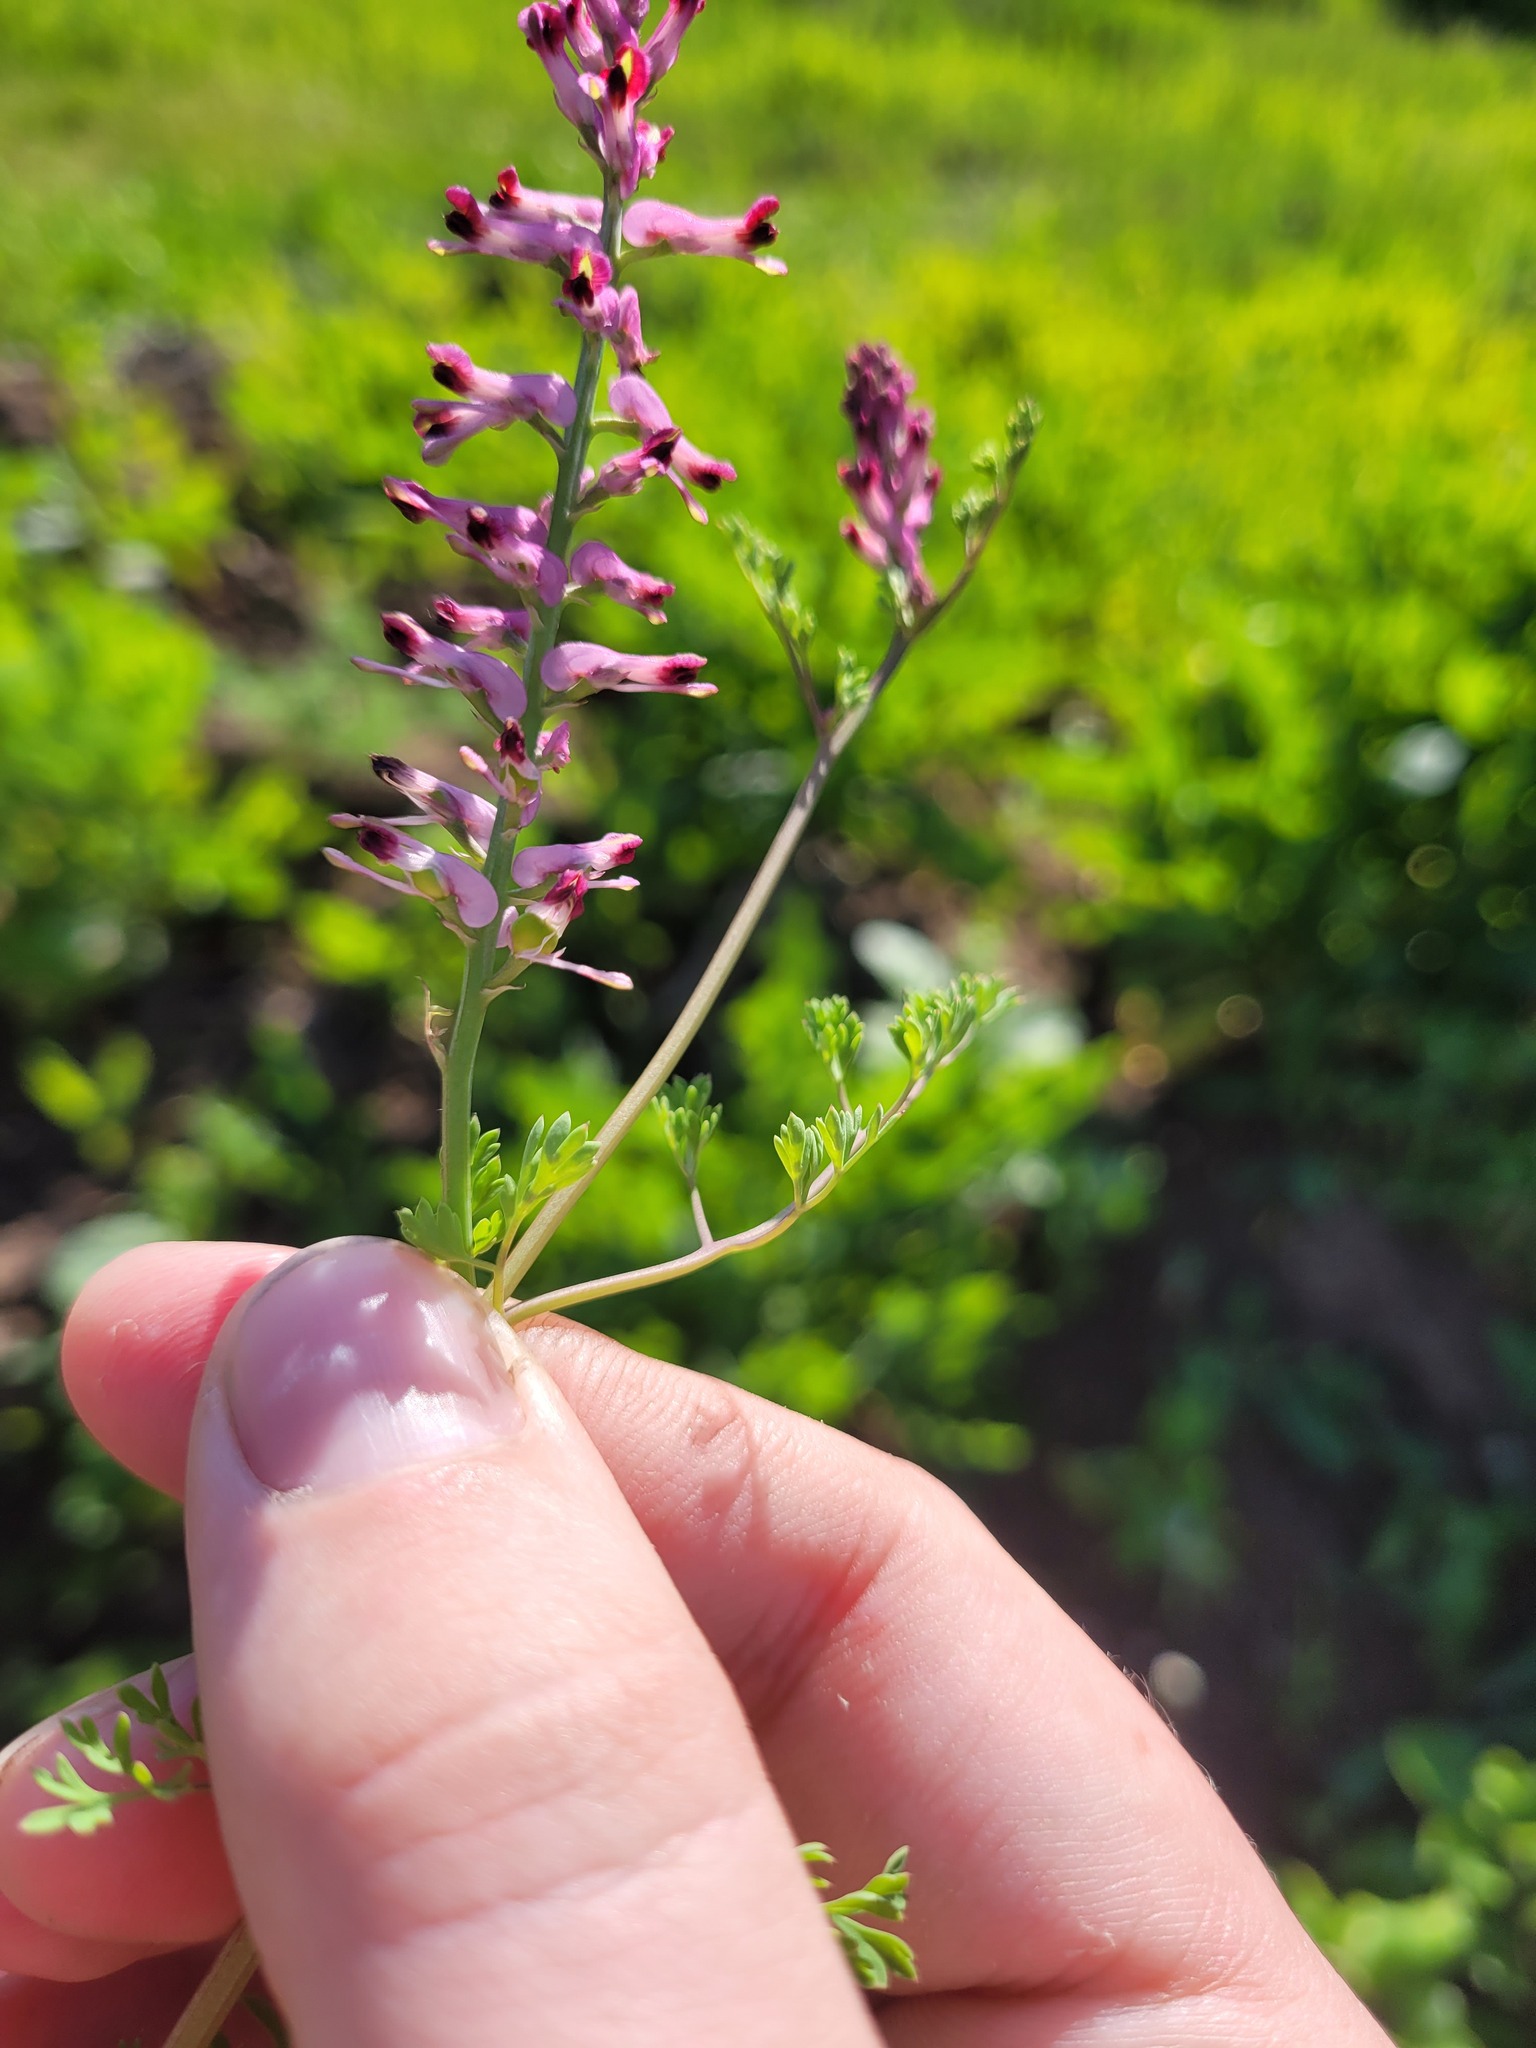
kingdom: Plantae
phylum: Tracheophyta
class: Magnoliopsida
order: Ranunculales
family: Papaveraceae
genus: Fumaria
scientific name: Fumaria officinalis
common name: Common fumitory
